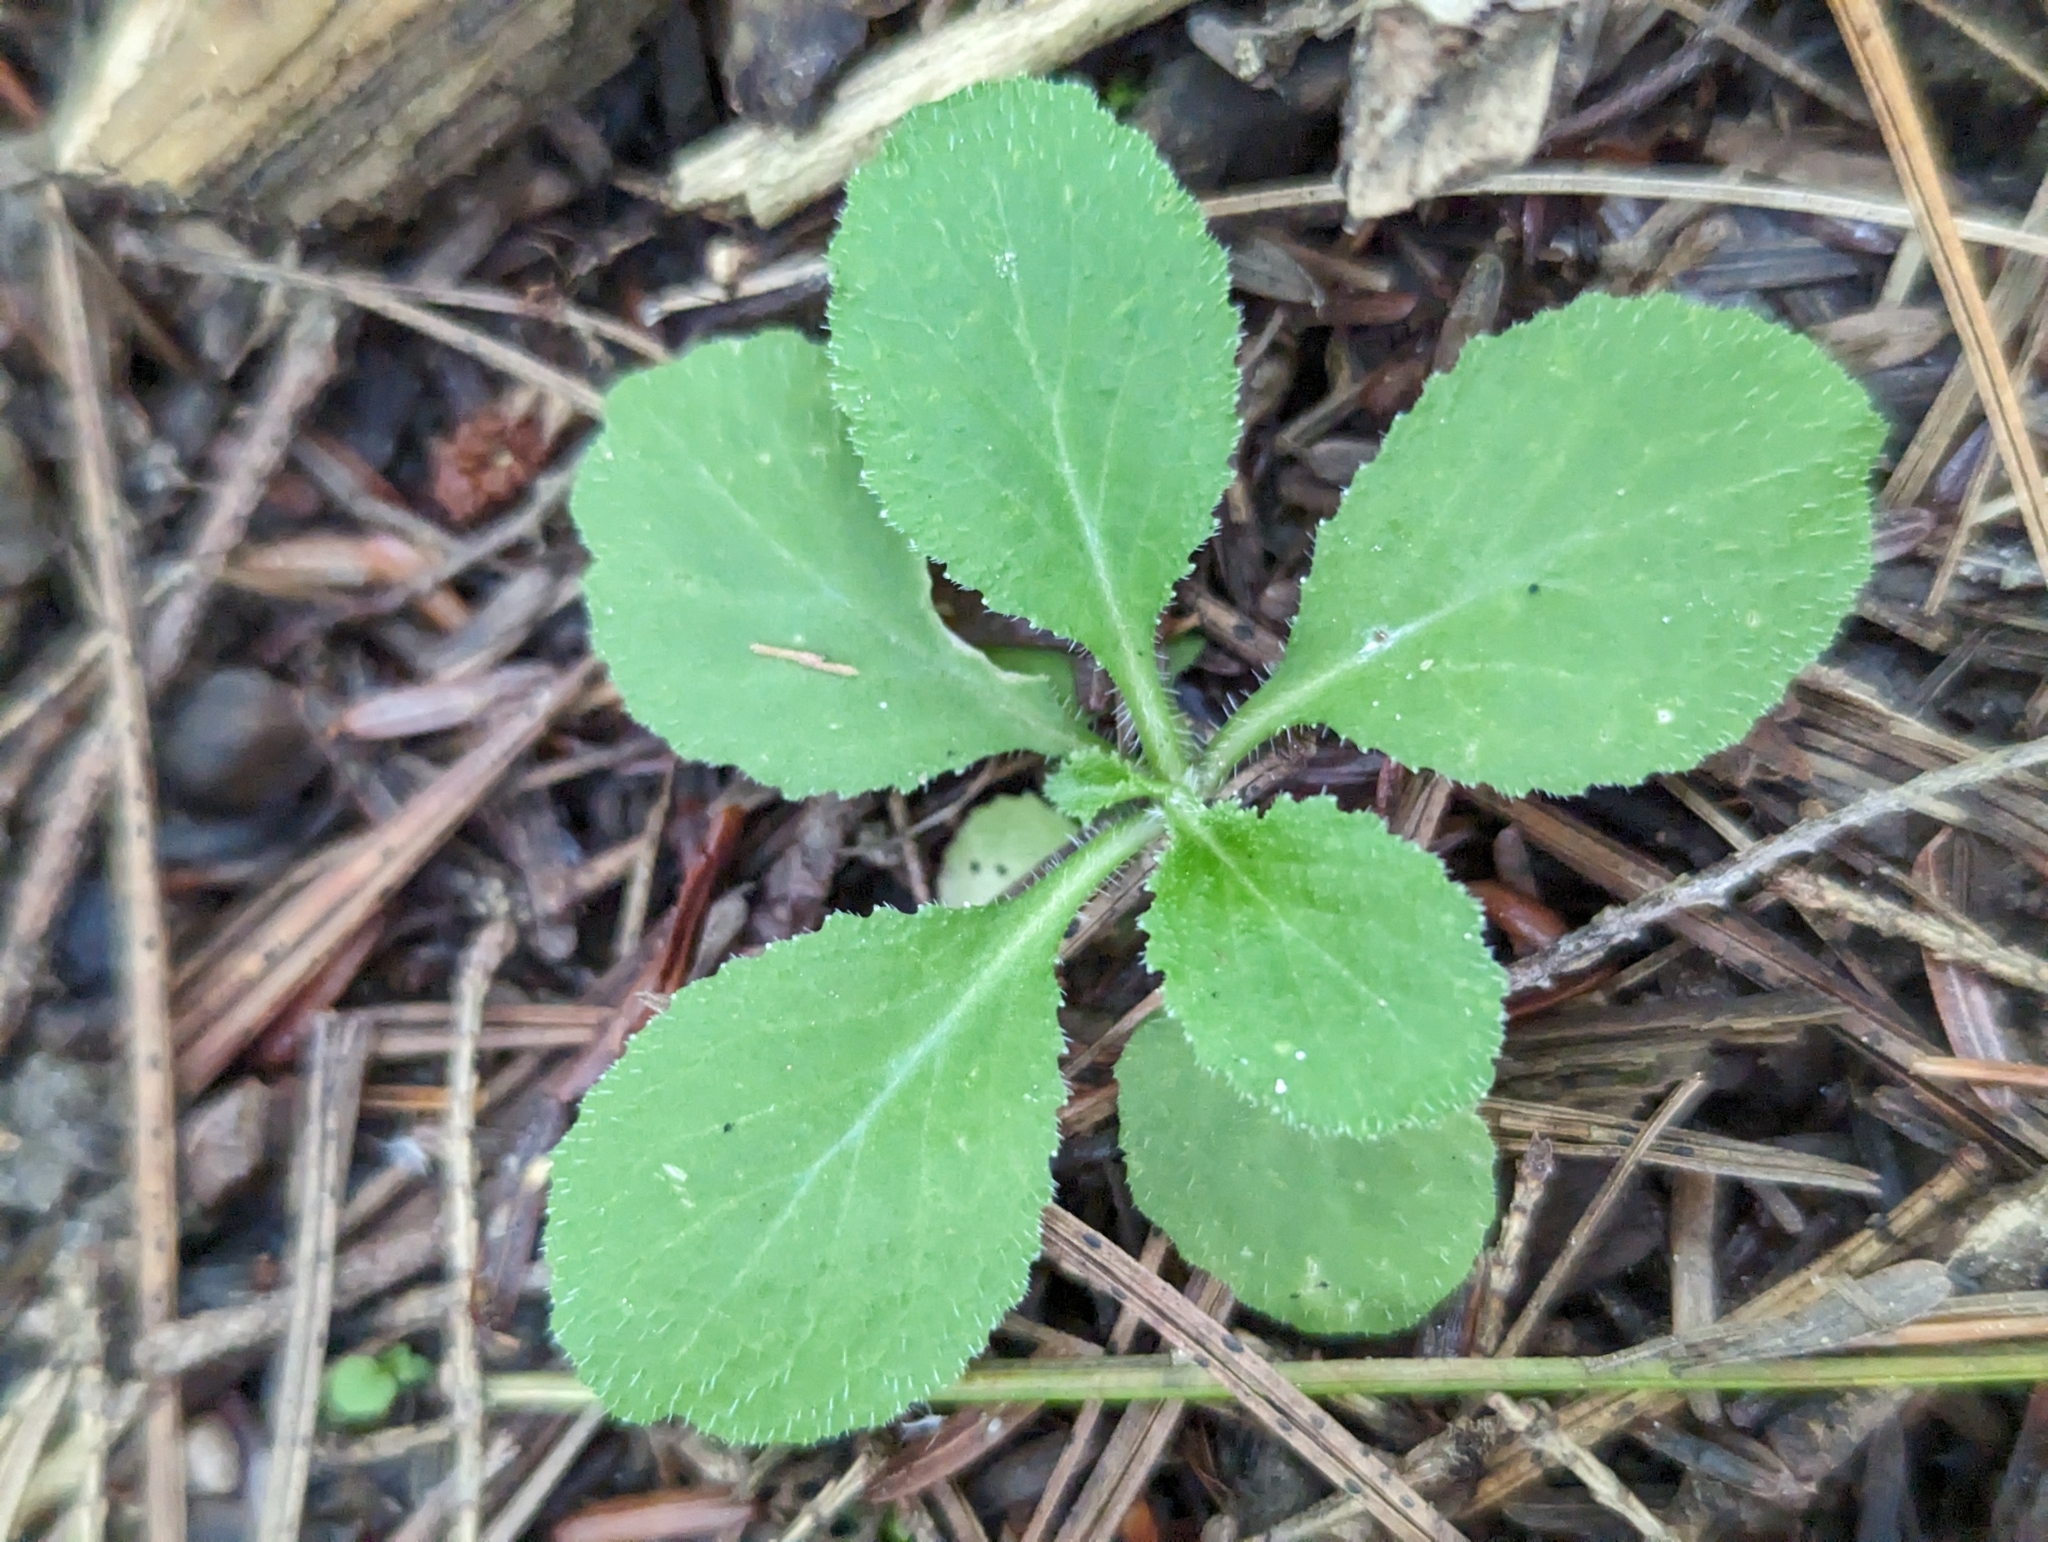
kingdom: Plantae
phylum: Tracheophyta
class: Magnoliopsida
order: Lamiales
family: Plantaginaceae
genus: Veronica
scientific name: Veronica officinalis
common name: Common speedwell
